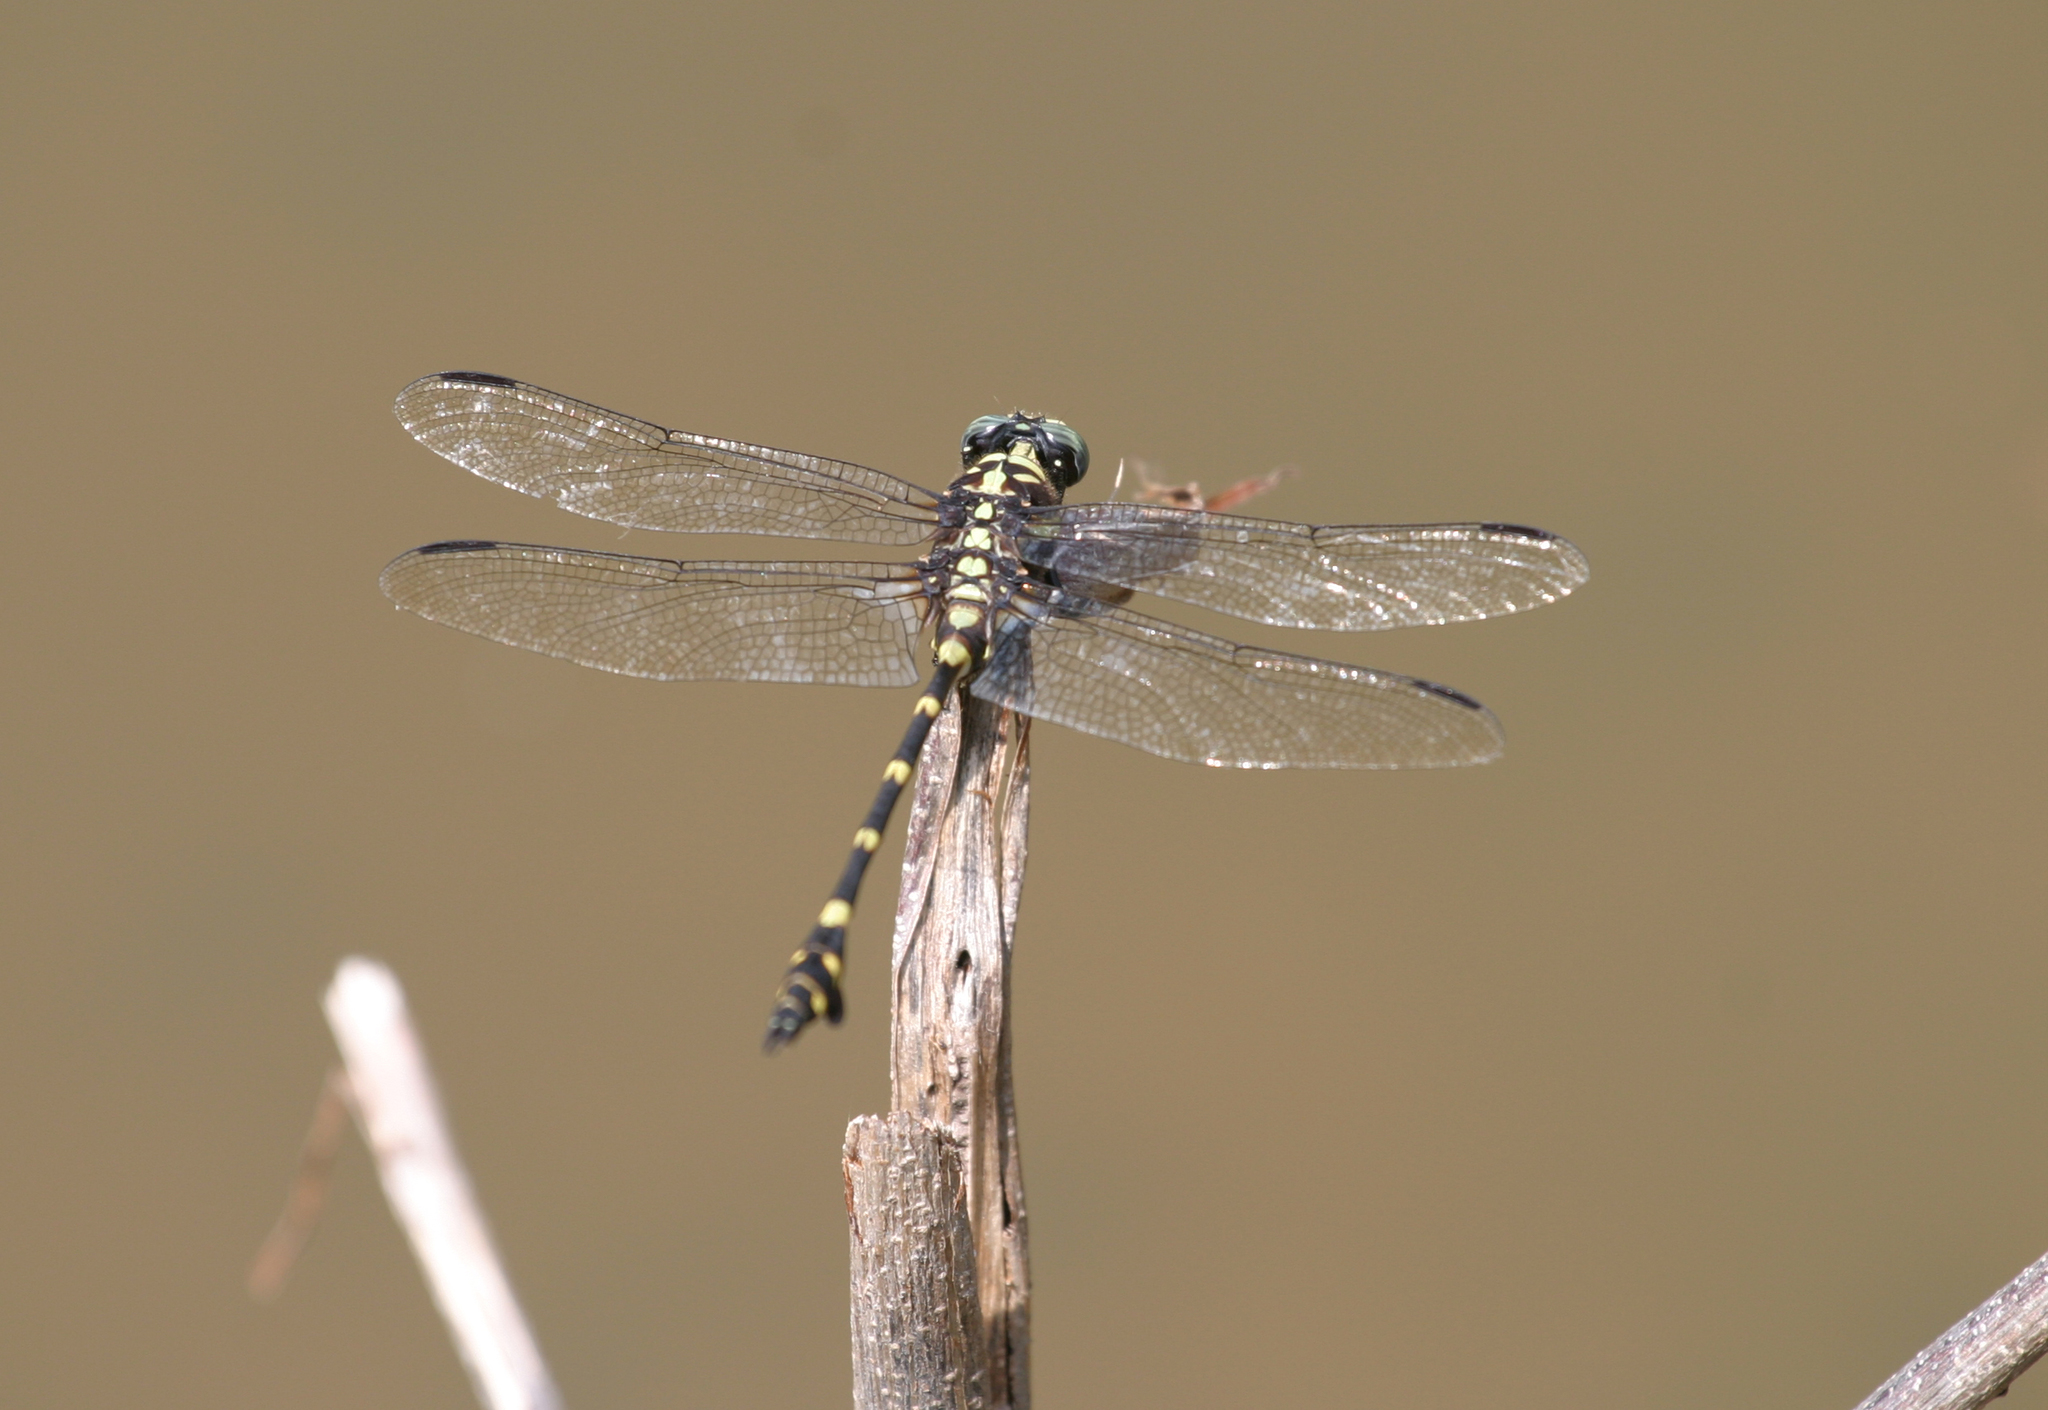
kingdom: Animalia
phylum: Arthropoda
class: Insecta
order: Odonata
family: Gomphidae
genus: Ictinogomphus
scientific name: Ictinogomphus decoratus
